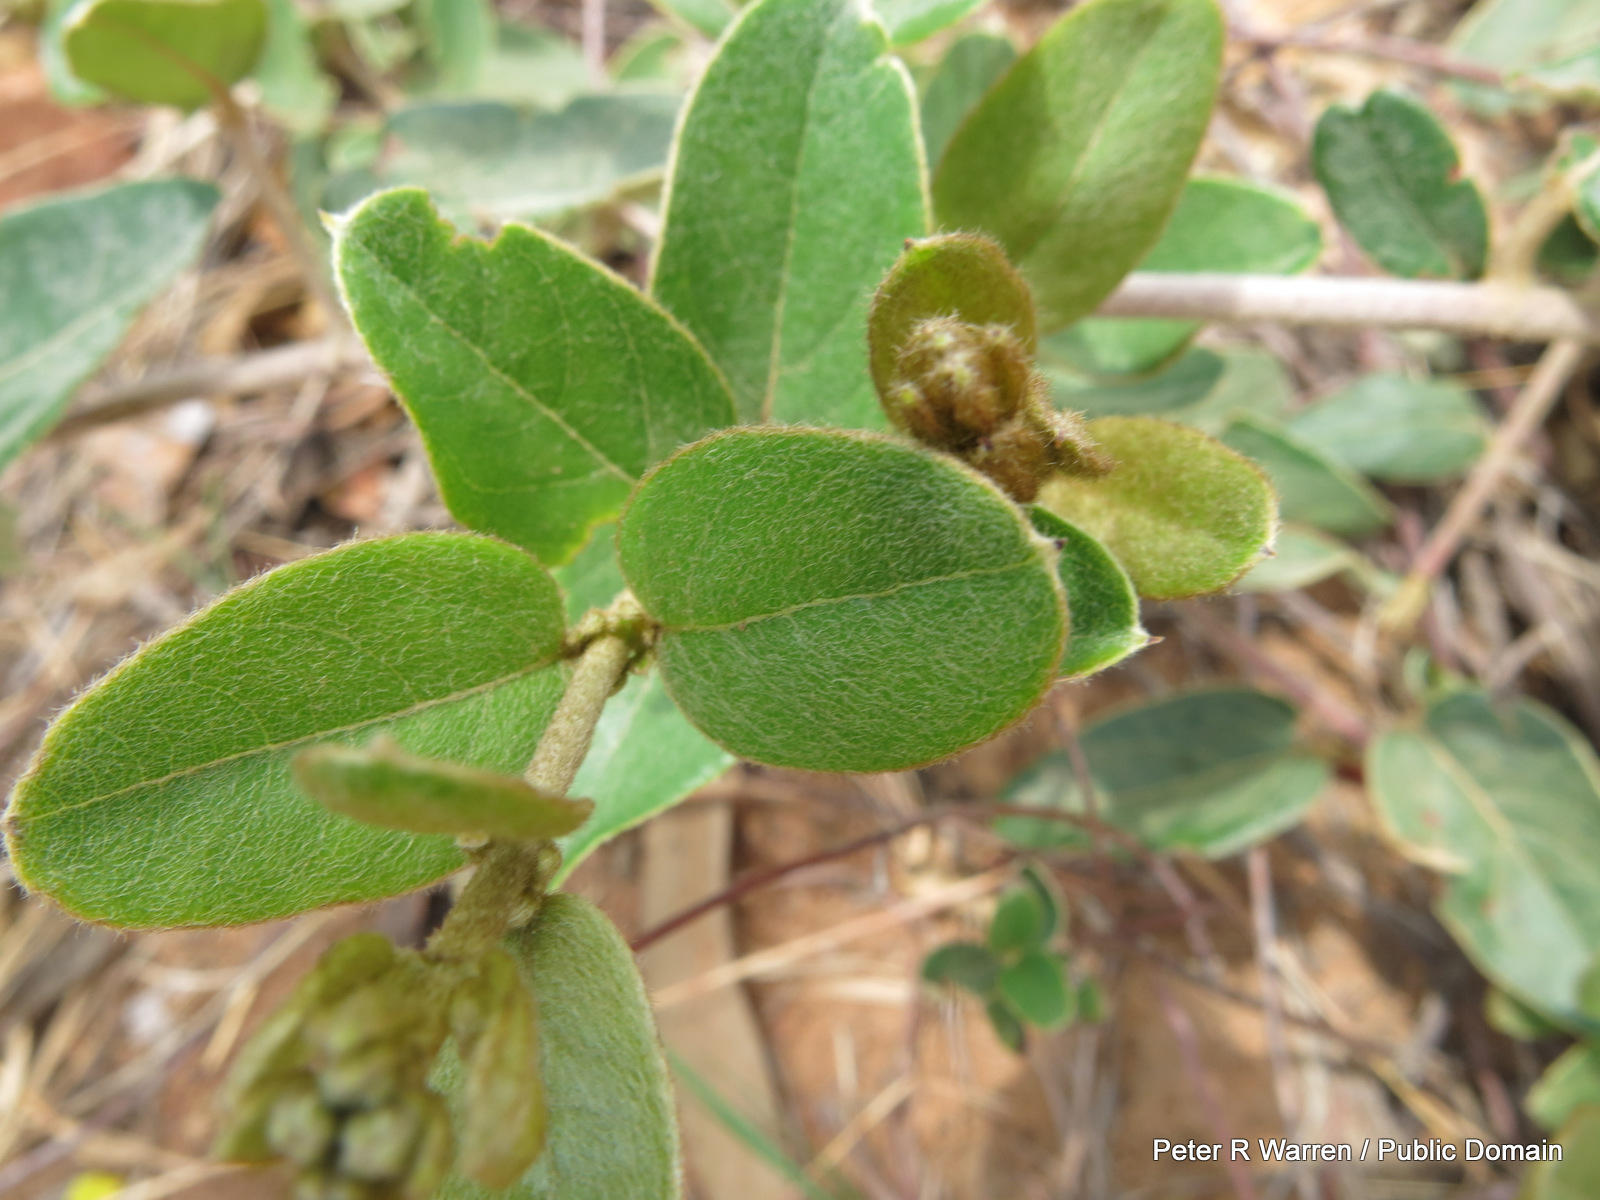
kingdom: Plantae
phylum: Tracheophyta
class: Magnoliopsida
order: Malpighiales
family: Malpighiaceae
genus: Sphedamnocarpus
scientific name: Sphedamnocarpus pruriens
